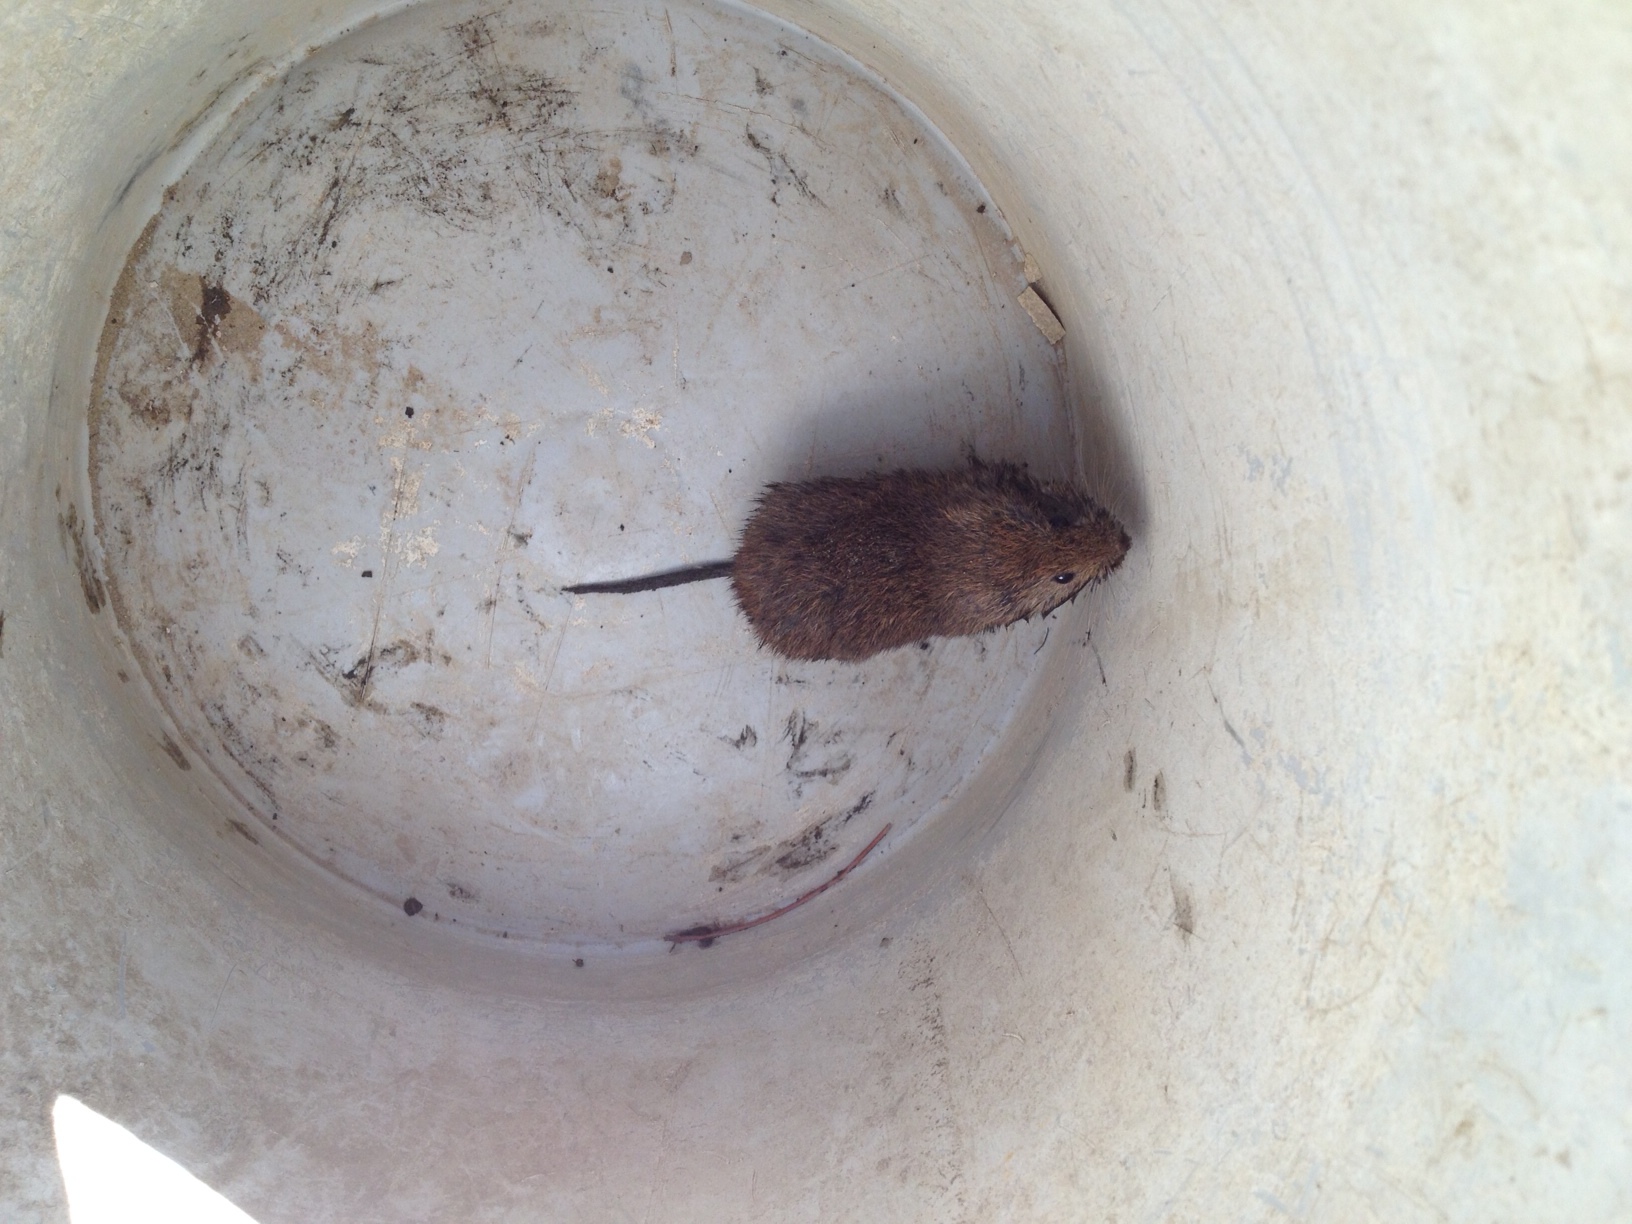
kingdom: Animalia
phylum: Chordata
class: Mammalia
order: Rodentia
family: Cricetidae
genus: Microtus
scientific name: Microtus californicus
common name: California vole
